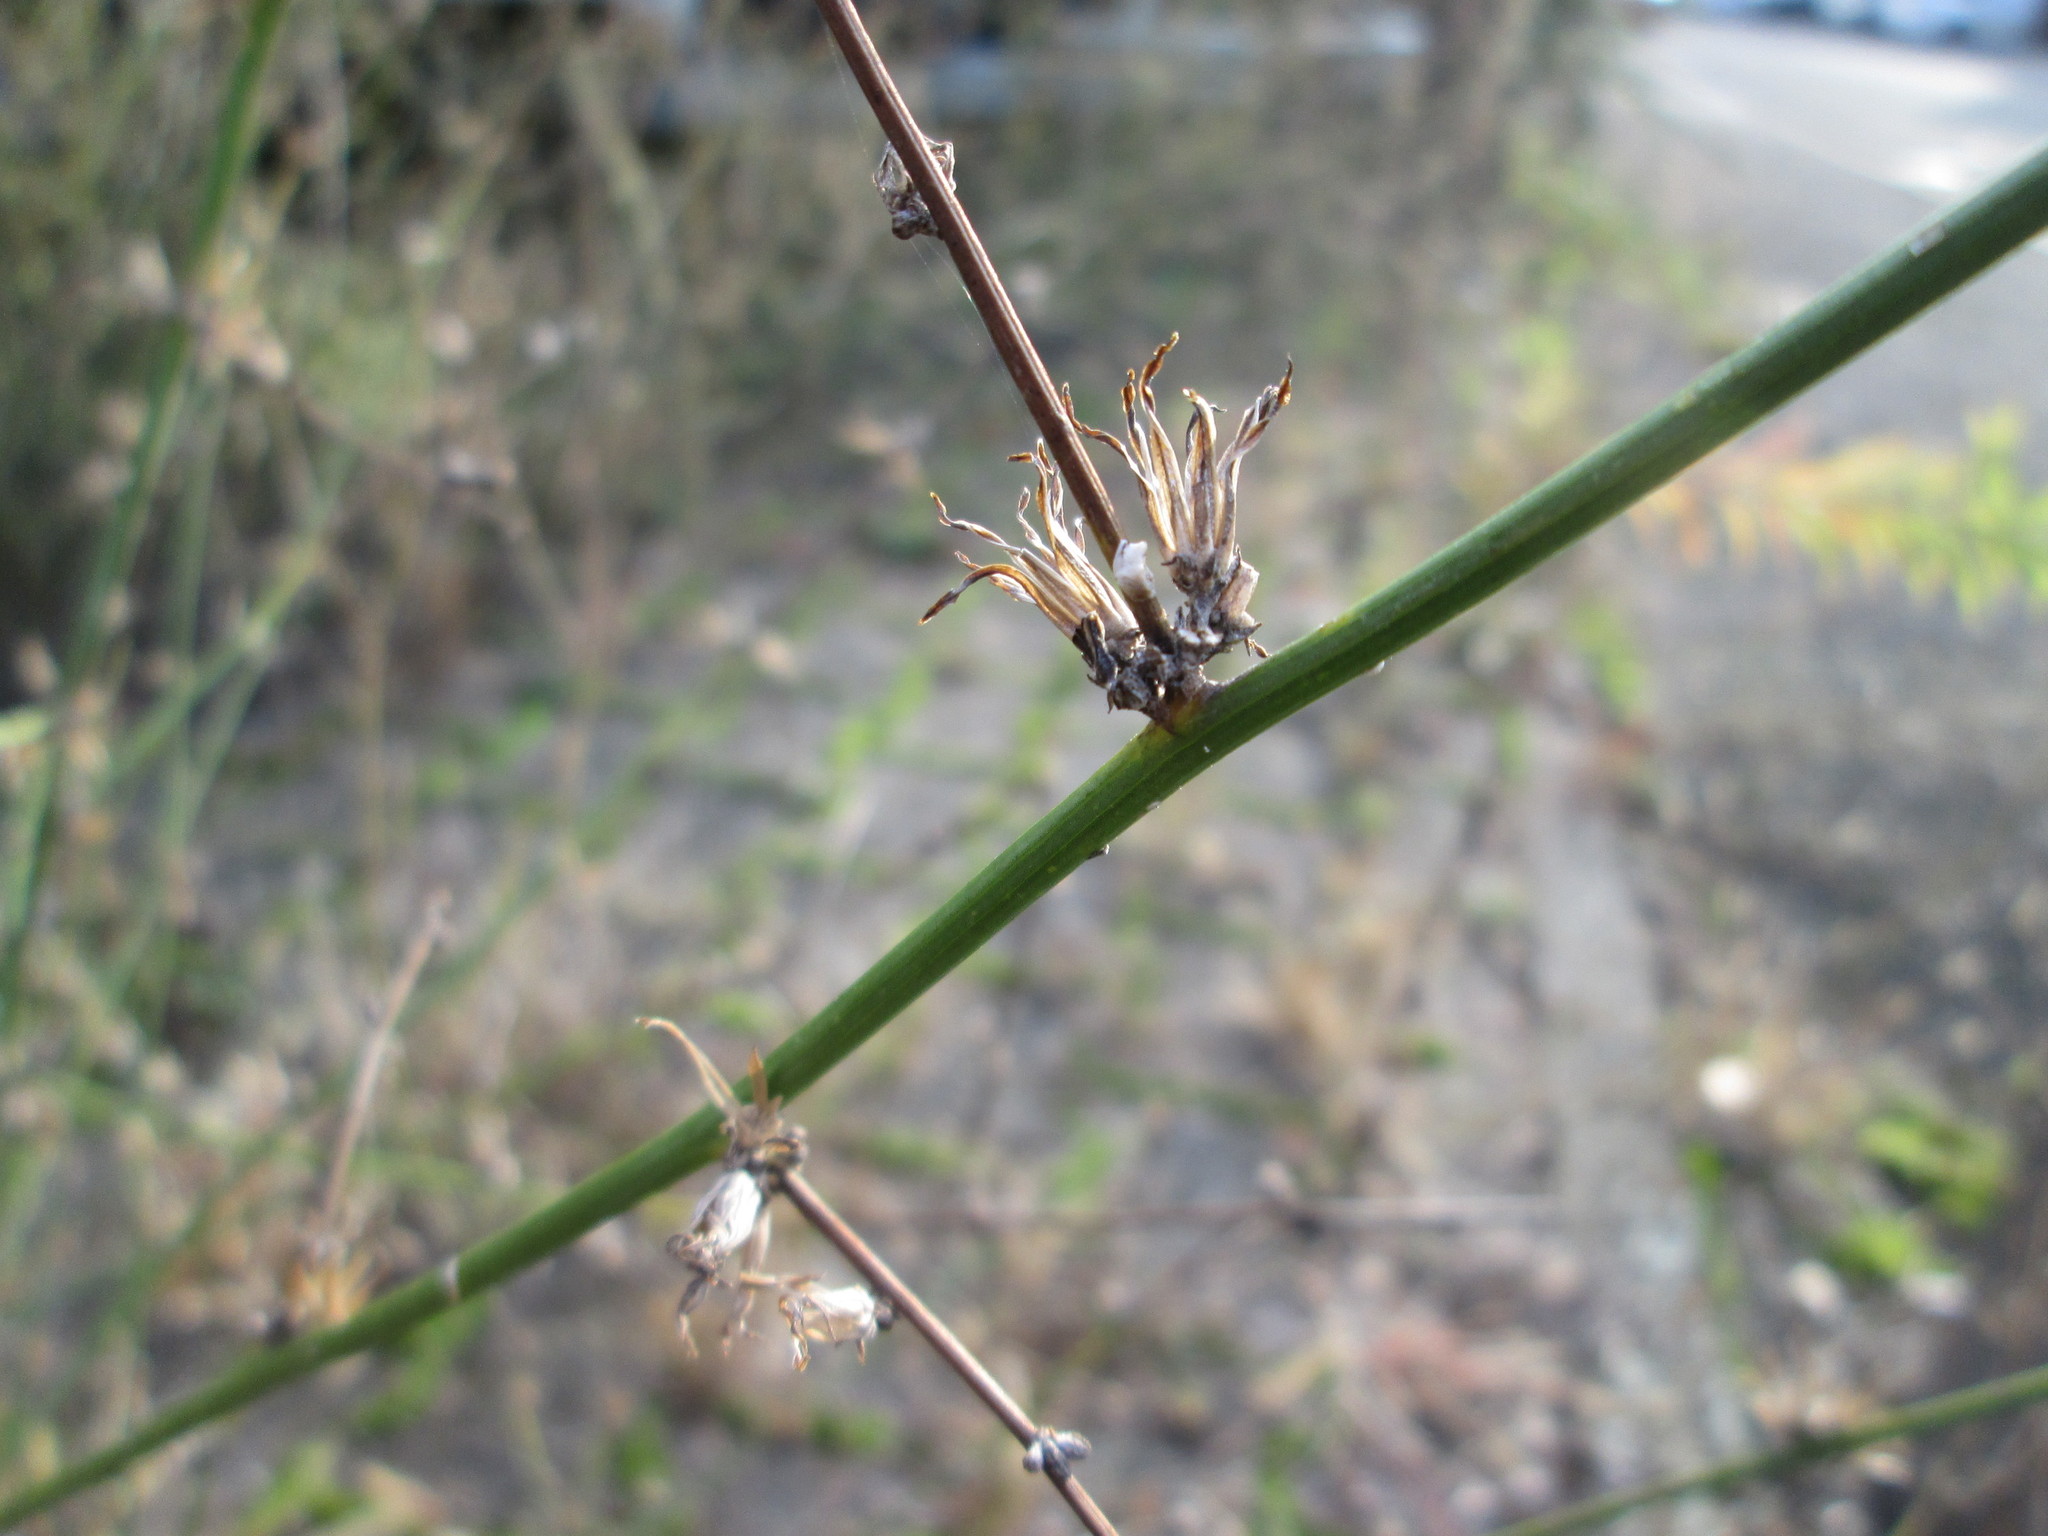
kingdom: Plantae
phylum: Tracheophyta
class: Magnoliopsida
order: Asterales
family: Asteraceae
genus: Chondrilla
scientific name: Chondrilla juncea
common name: Skeleton weed
